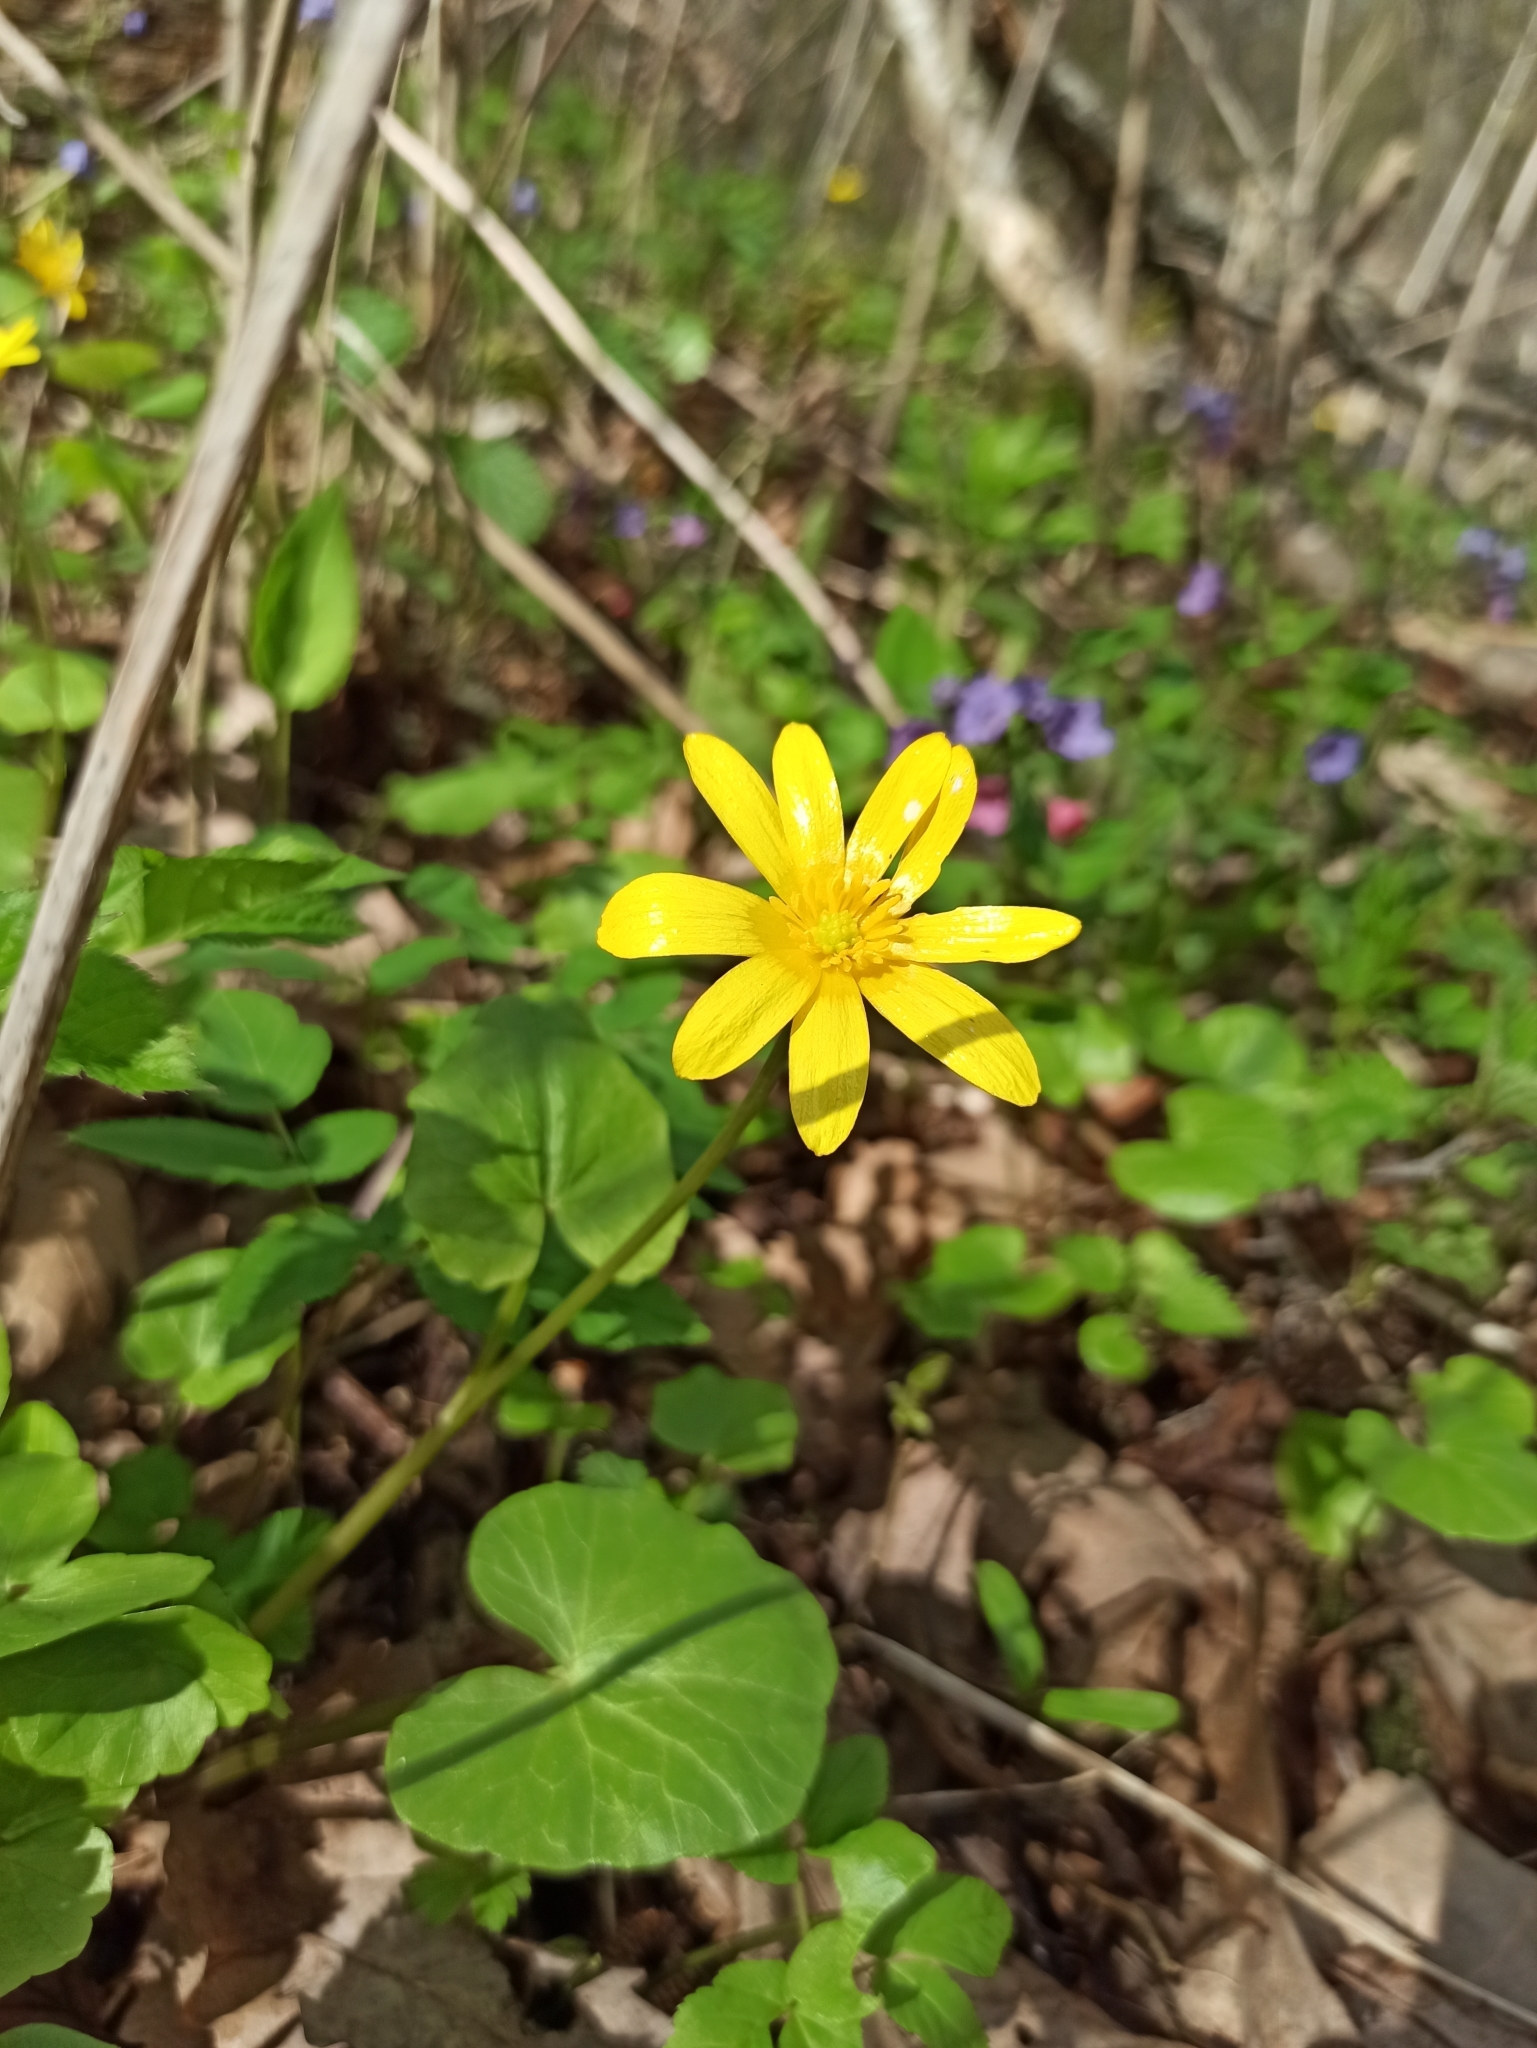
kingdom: Plantae
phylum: Tracheophyta
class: Magnoliopsida
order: Ranunculales
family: Ranunculaceae
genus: Ficaria
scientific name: Ficaria verna
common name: Lesser celandine
